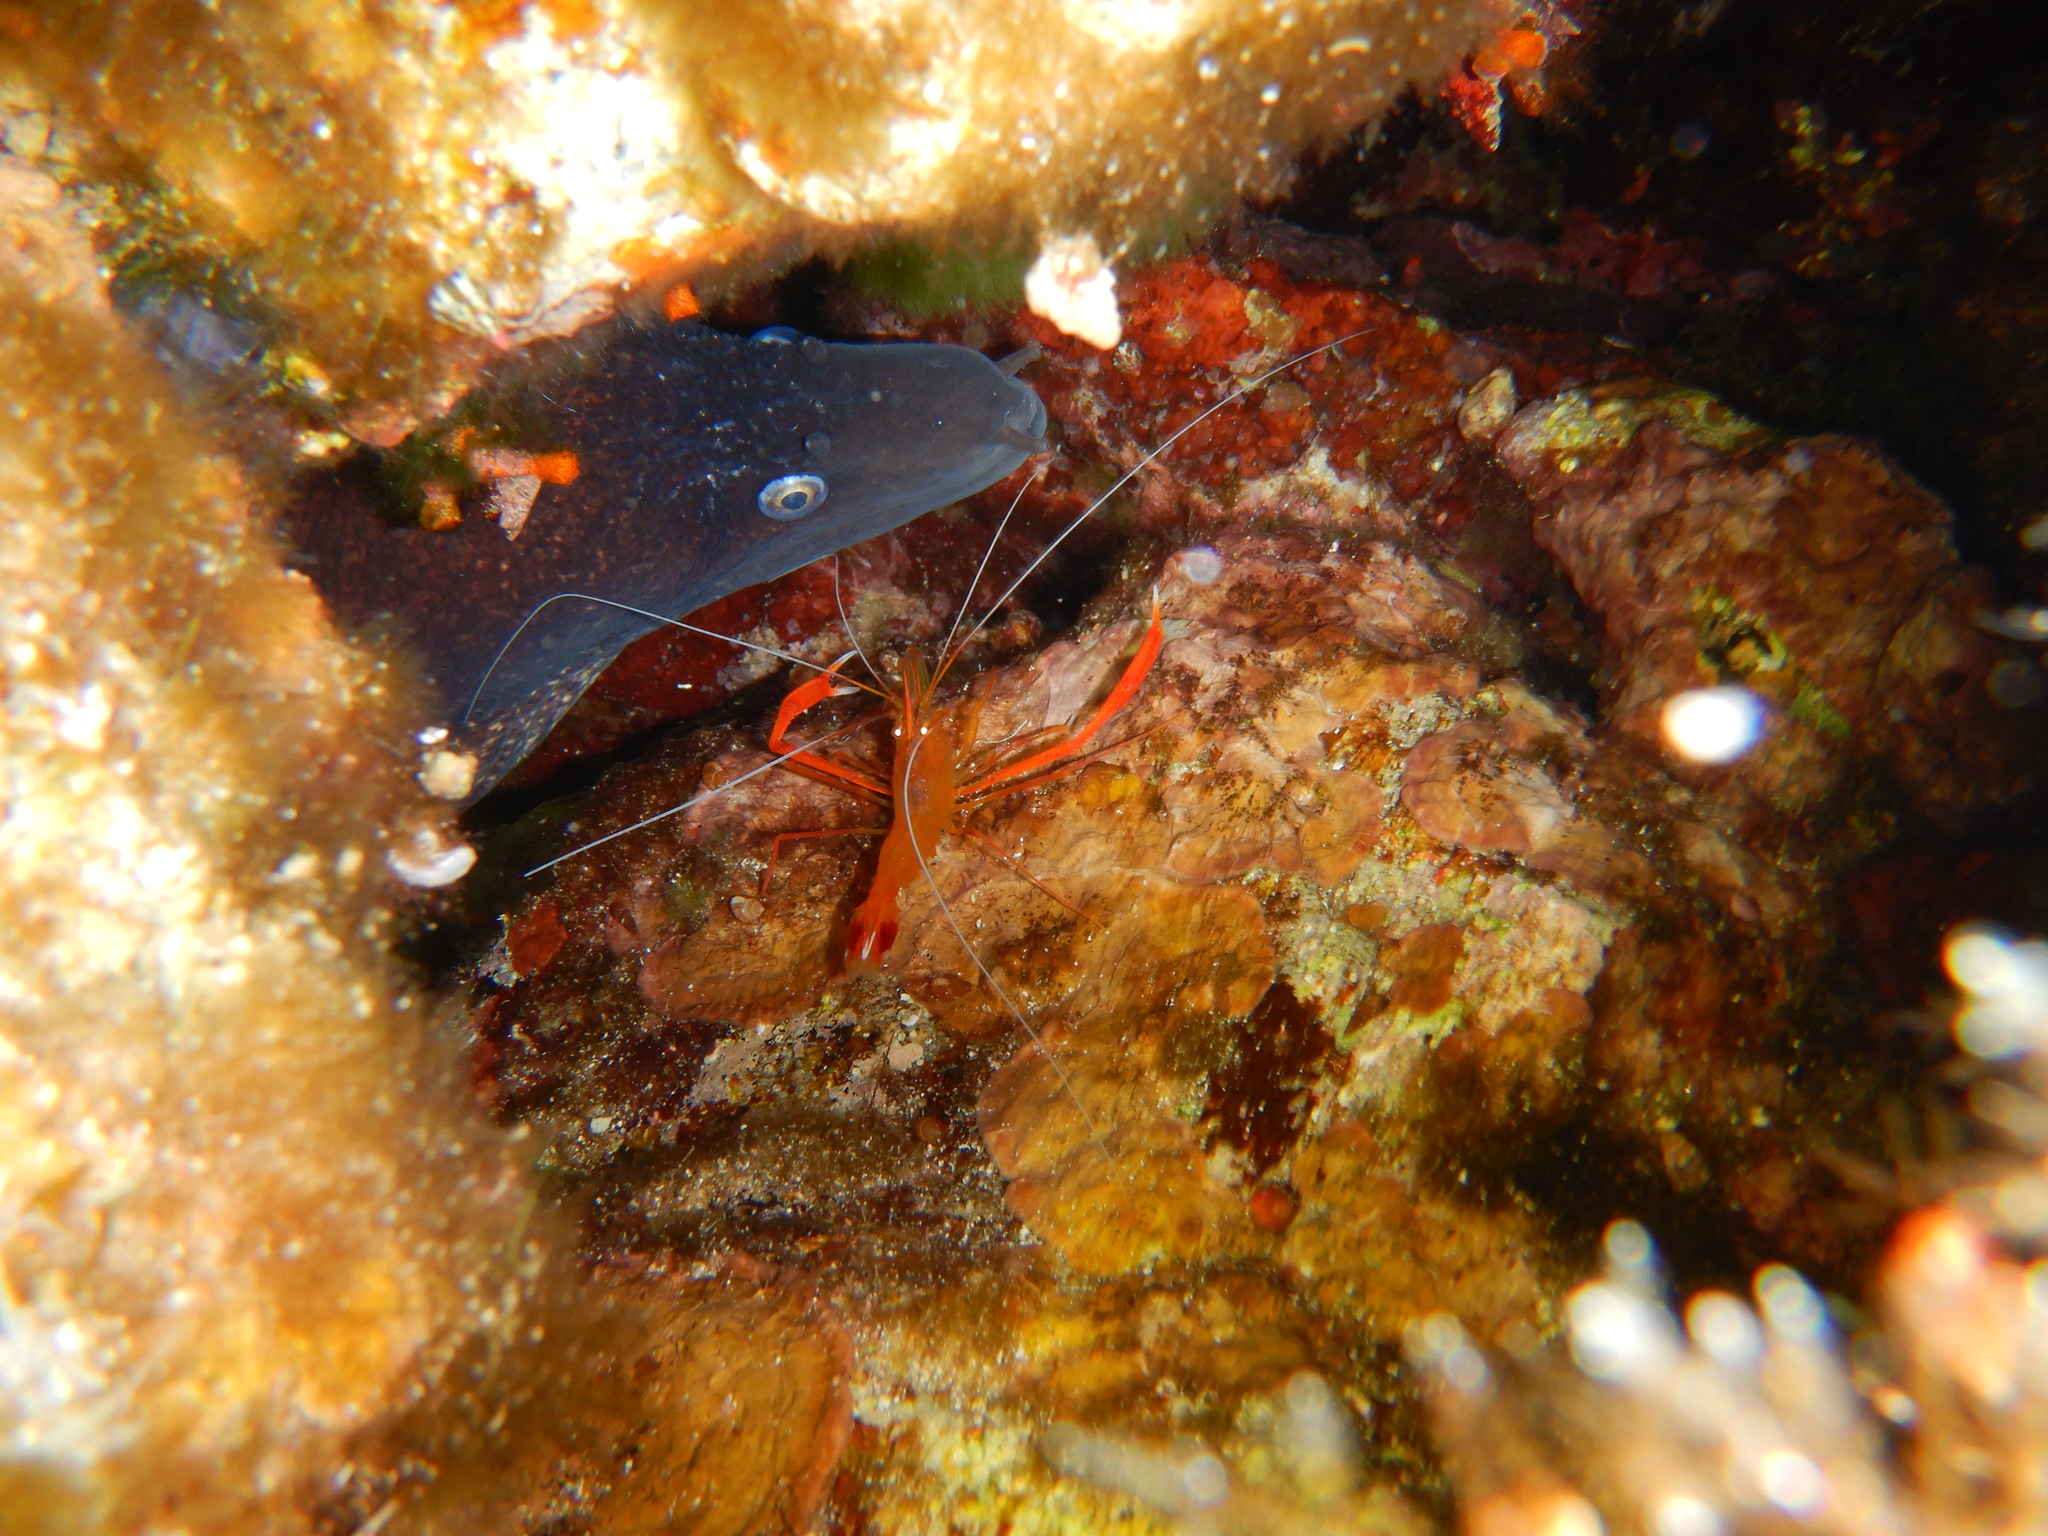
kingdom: Animalia
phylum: Arthropoda
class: Malacostraca
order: Decapoda
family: Stenopodidae
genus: Stenopus
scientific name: Stenopus spinosus
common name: Golden coral shrimp
